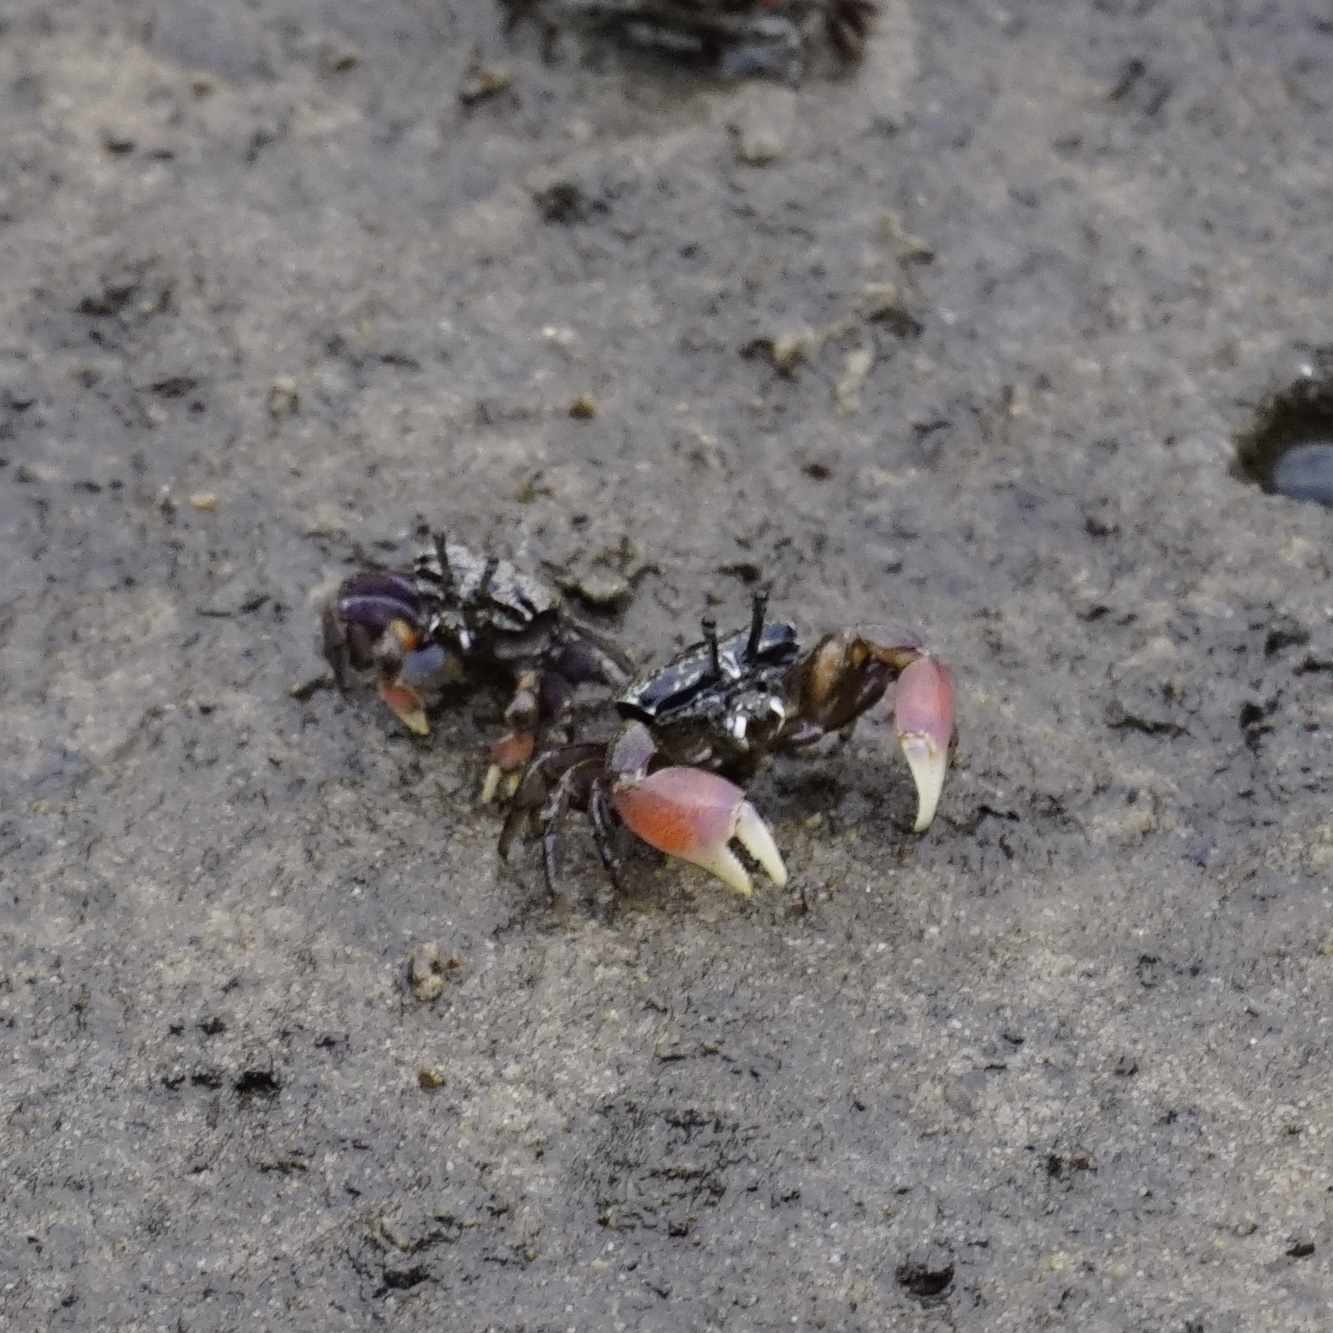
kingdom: Animalia
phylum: Arthropoda
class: Malacostraca
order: Decapoda
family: Heloeciidae
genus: Heloecius
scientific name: Heloecius cordiformis
